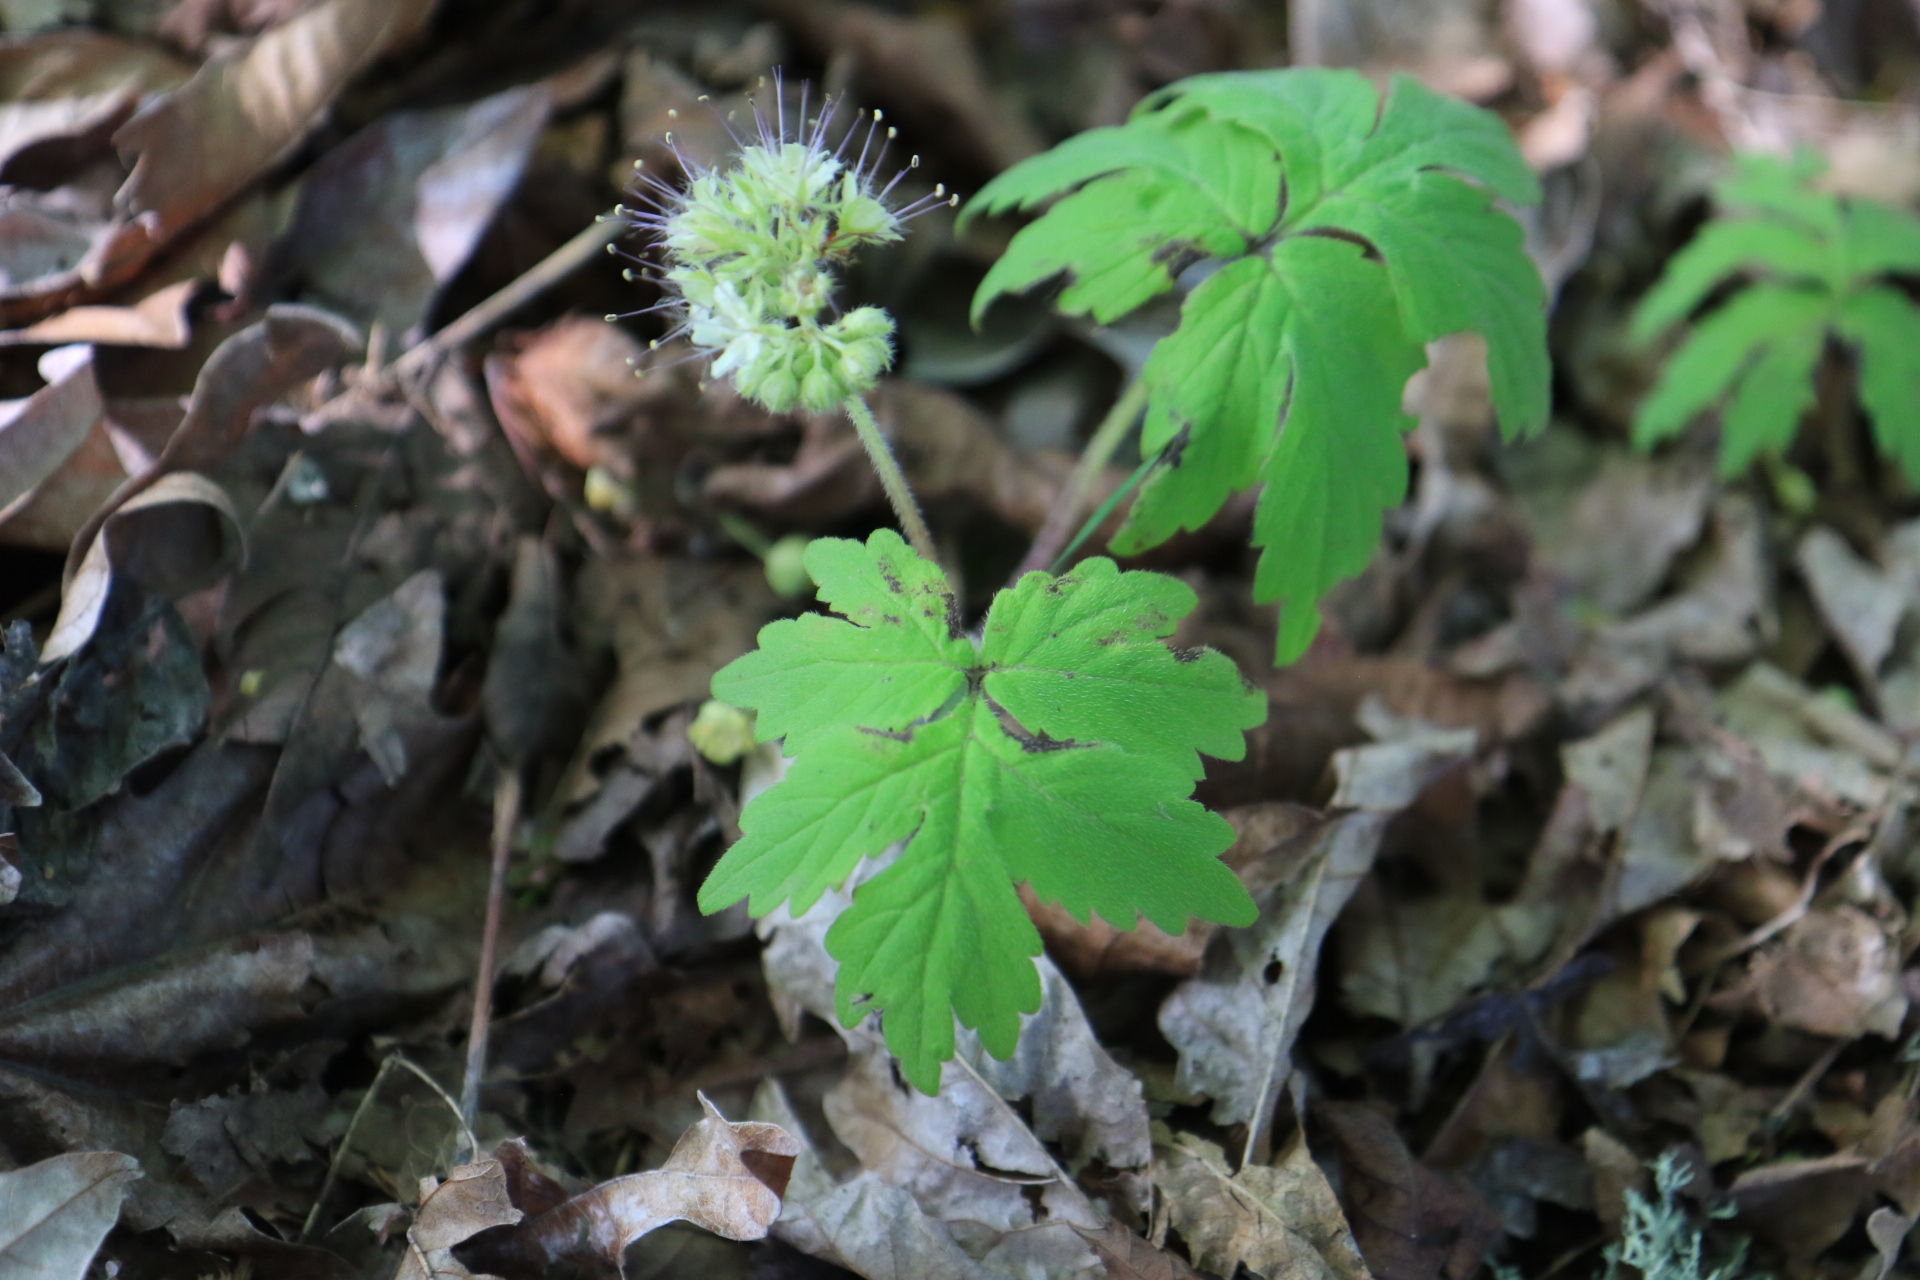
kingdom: Plantae
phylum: Tracheophyta
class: Magnoliopsida
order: Boraginales
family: Hydrophyllaceae
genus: Hydrophyllum
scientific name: Hydrophyllum tenuipes
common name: Pacific waterleaf
